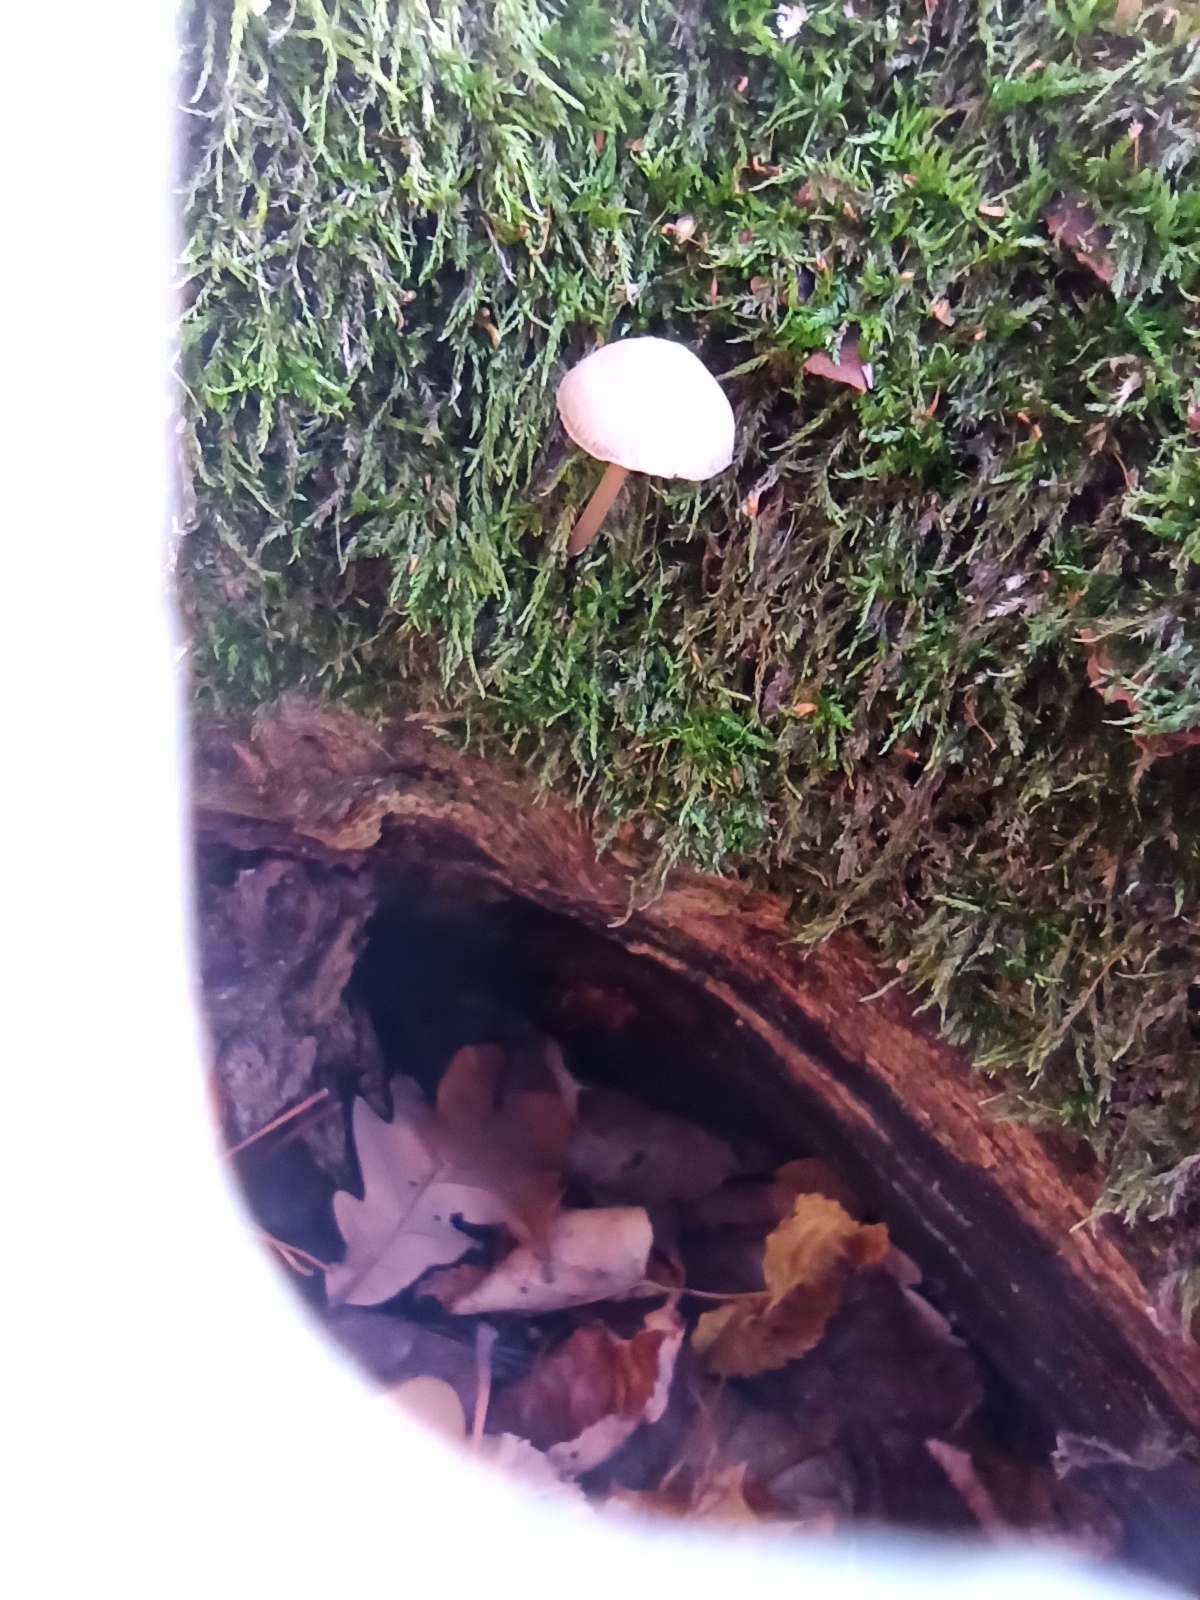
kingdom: Fungi
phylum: Basidiomycota
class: Agaricomycetes
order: Agaricales
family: Mycenaceae
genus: Mycena
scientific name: Mycena galericulata
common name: Bonnet mycena
